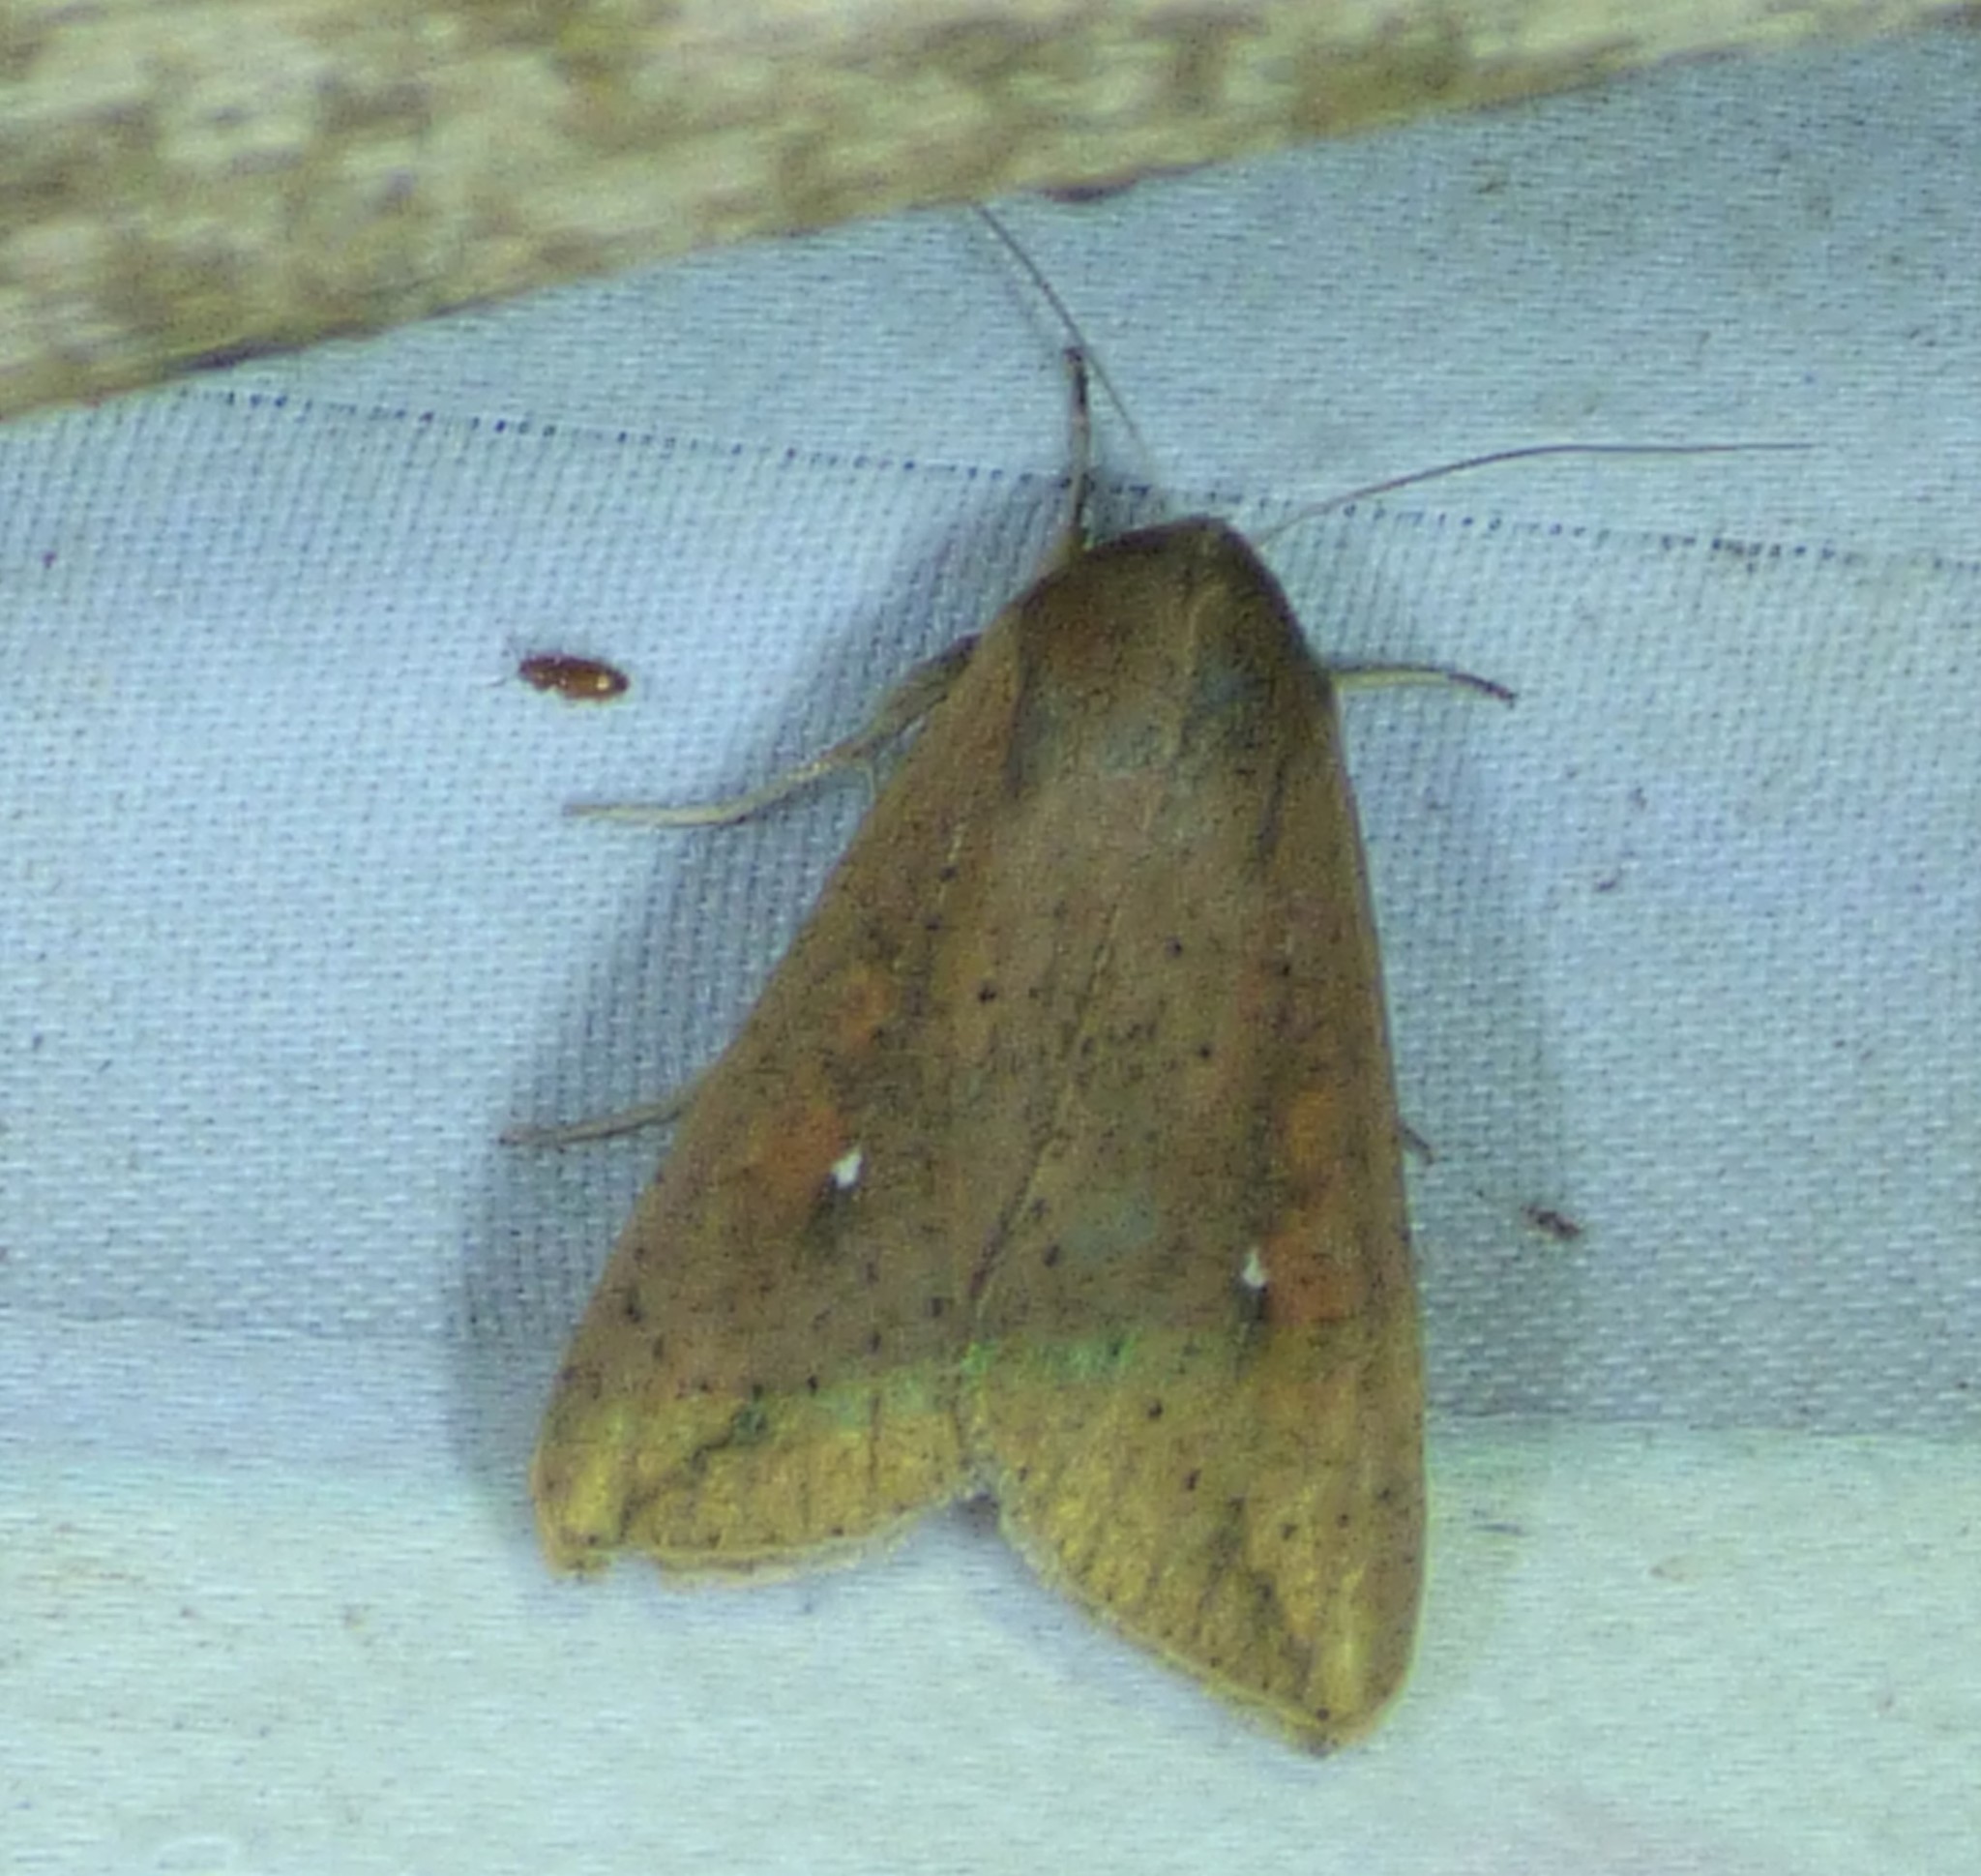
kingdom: Animalia
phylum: Arthropoda
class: Insecta
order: Lepidoptera
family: Noctuidae
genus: Mythimna
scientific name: Mythimna unipuncta
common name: White-speck
